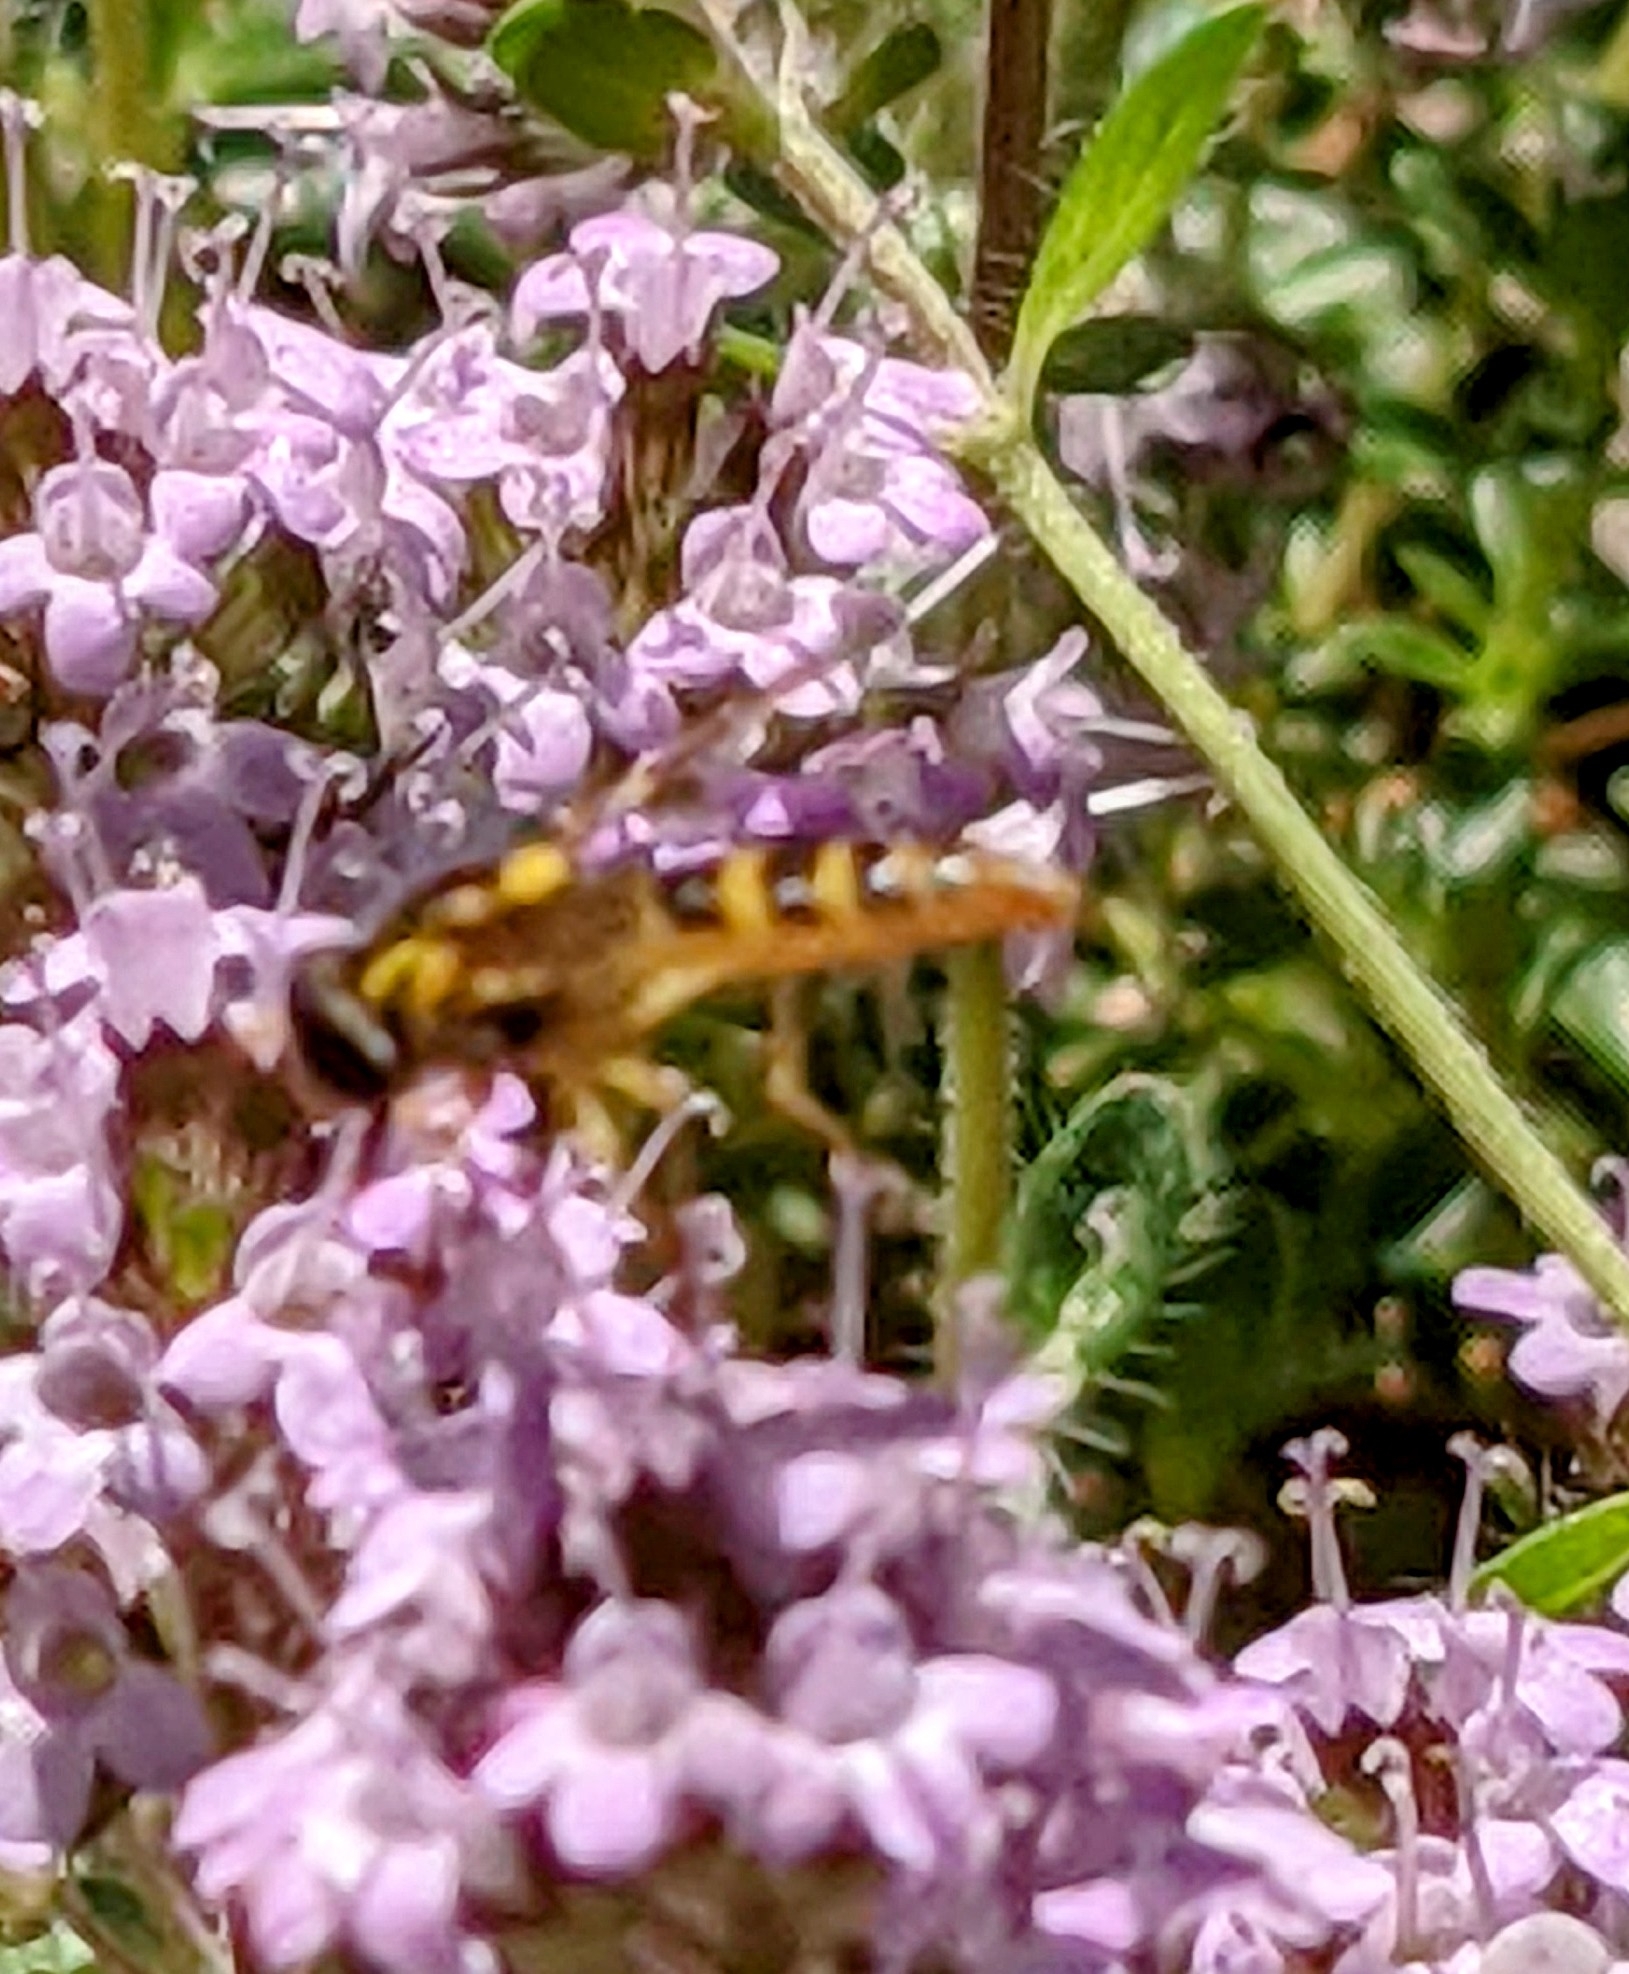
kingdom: Animalia
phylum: Arthropoda
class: Insecta
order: Diptera
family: Syrphidae
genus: Sphaerophoria
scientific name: Sphaerophoria
